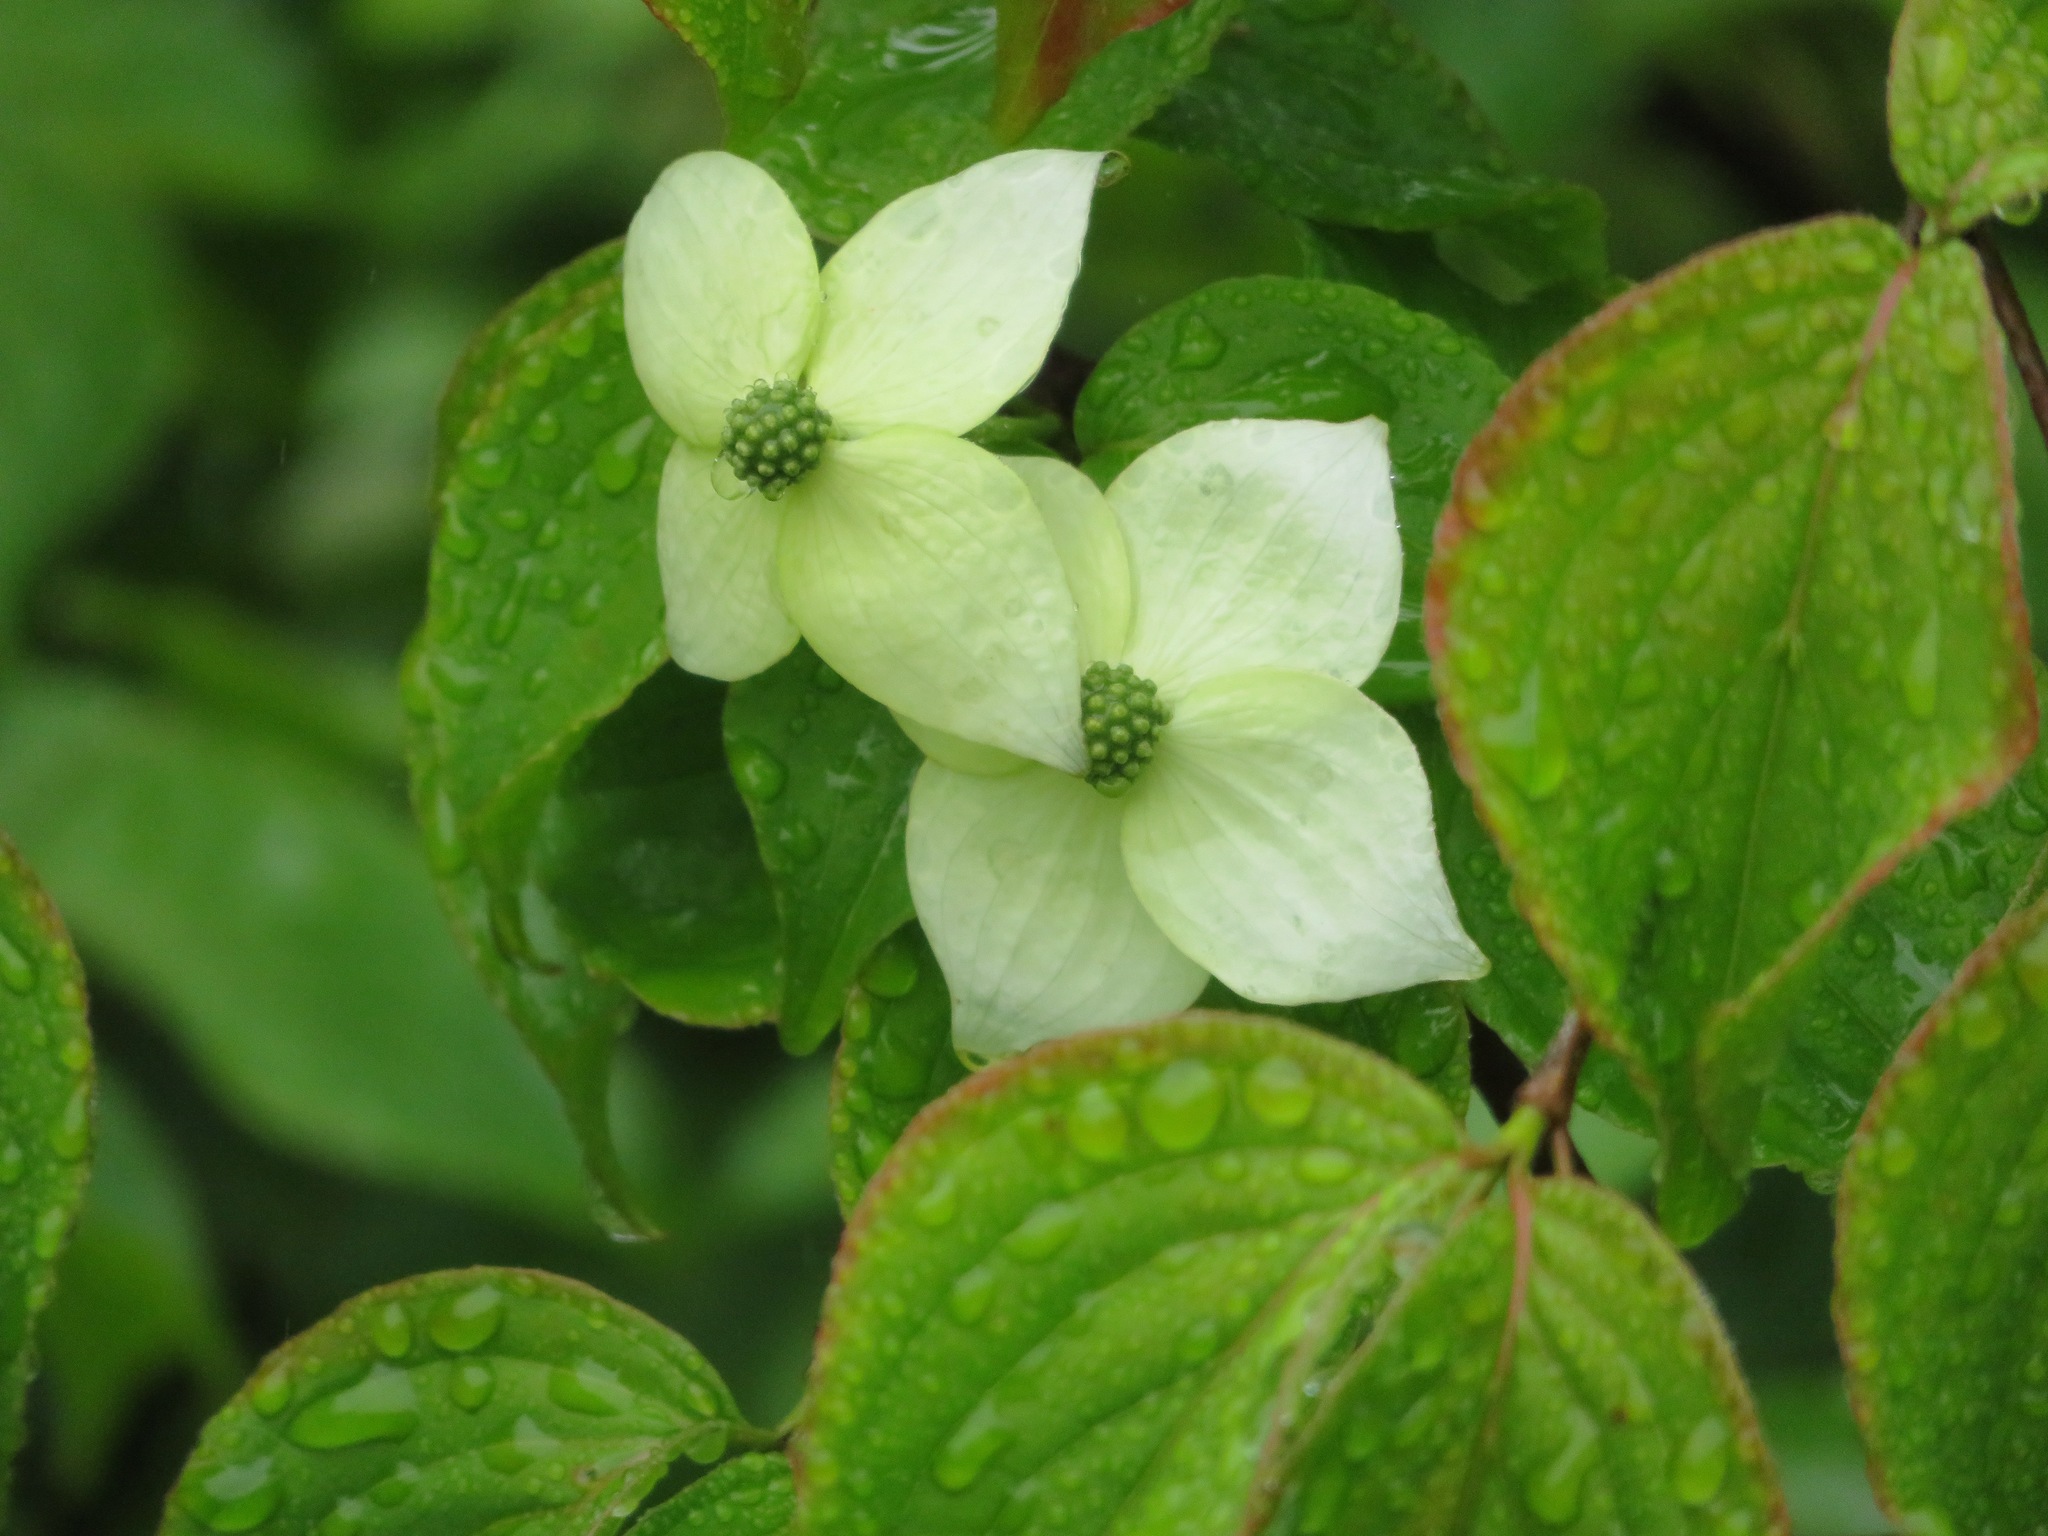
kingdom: Plantae
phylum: Tracheophyta
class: Magnoliopsida
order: Cornales
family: Cornaceae
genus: Cornus
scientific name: Cornus kousa
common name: Japanese dogwood
